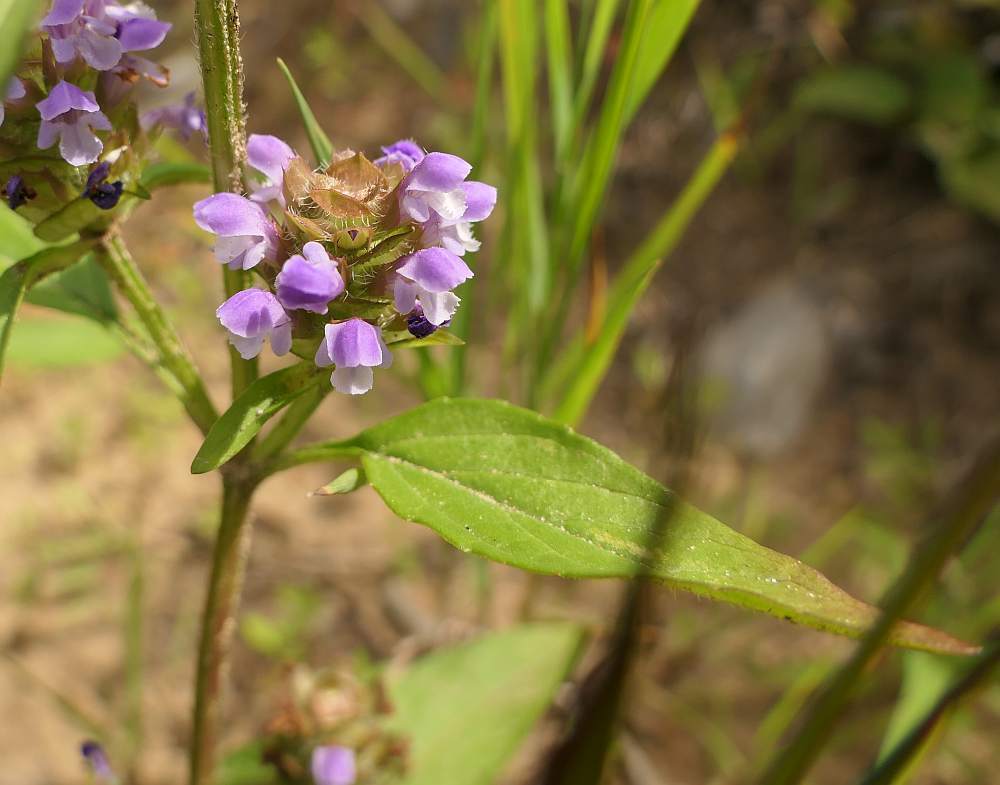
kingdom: Plantae
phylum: Tracheophyta
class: Magnoliopsida
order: Lamiales
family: Lamiaceae
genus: Prunella
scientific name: Prunella vulgaris
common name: Heal-all
